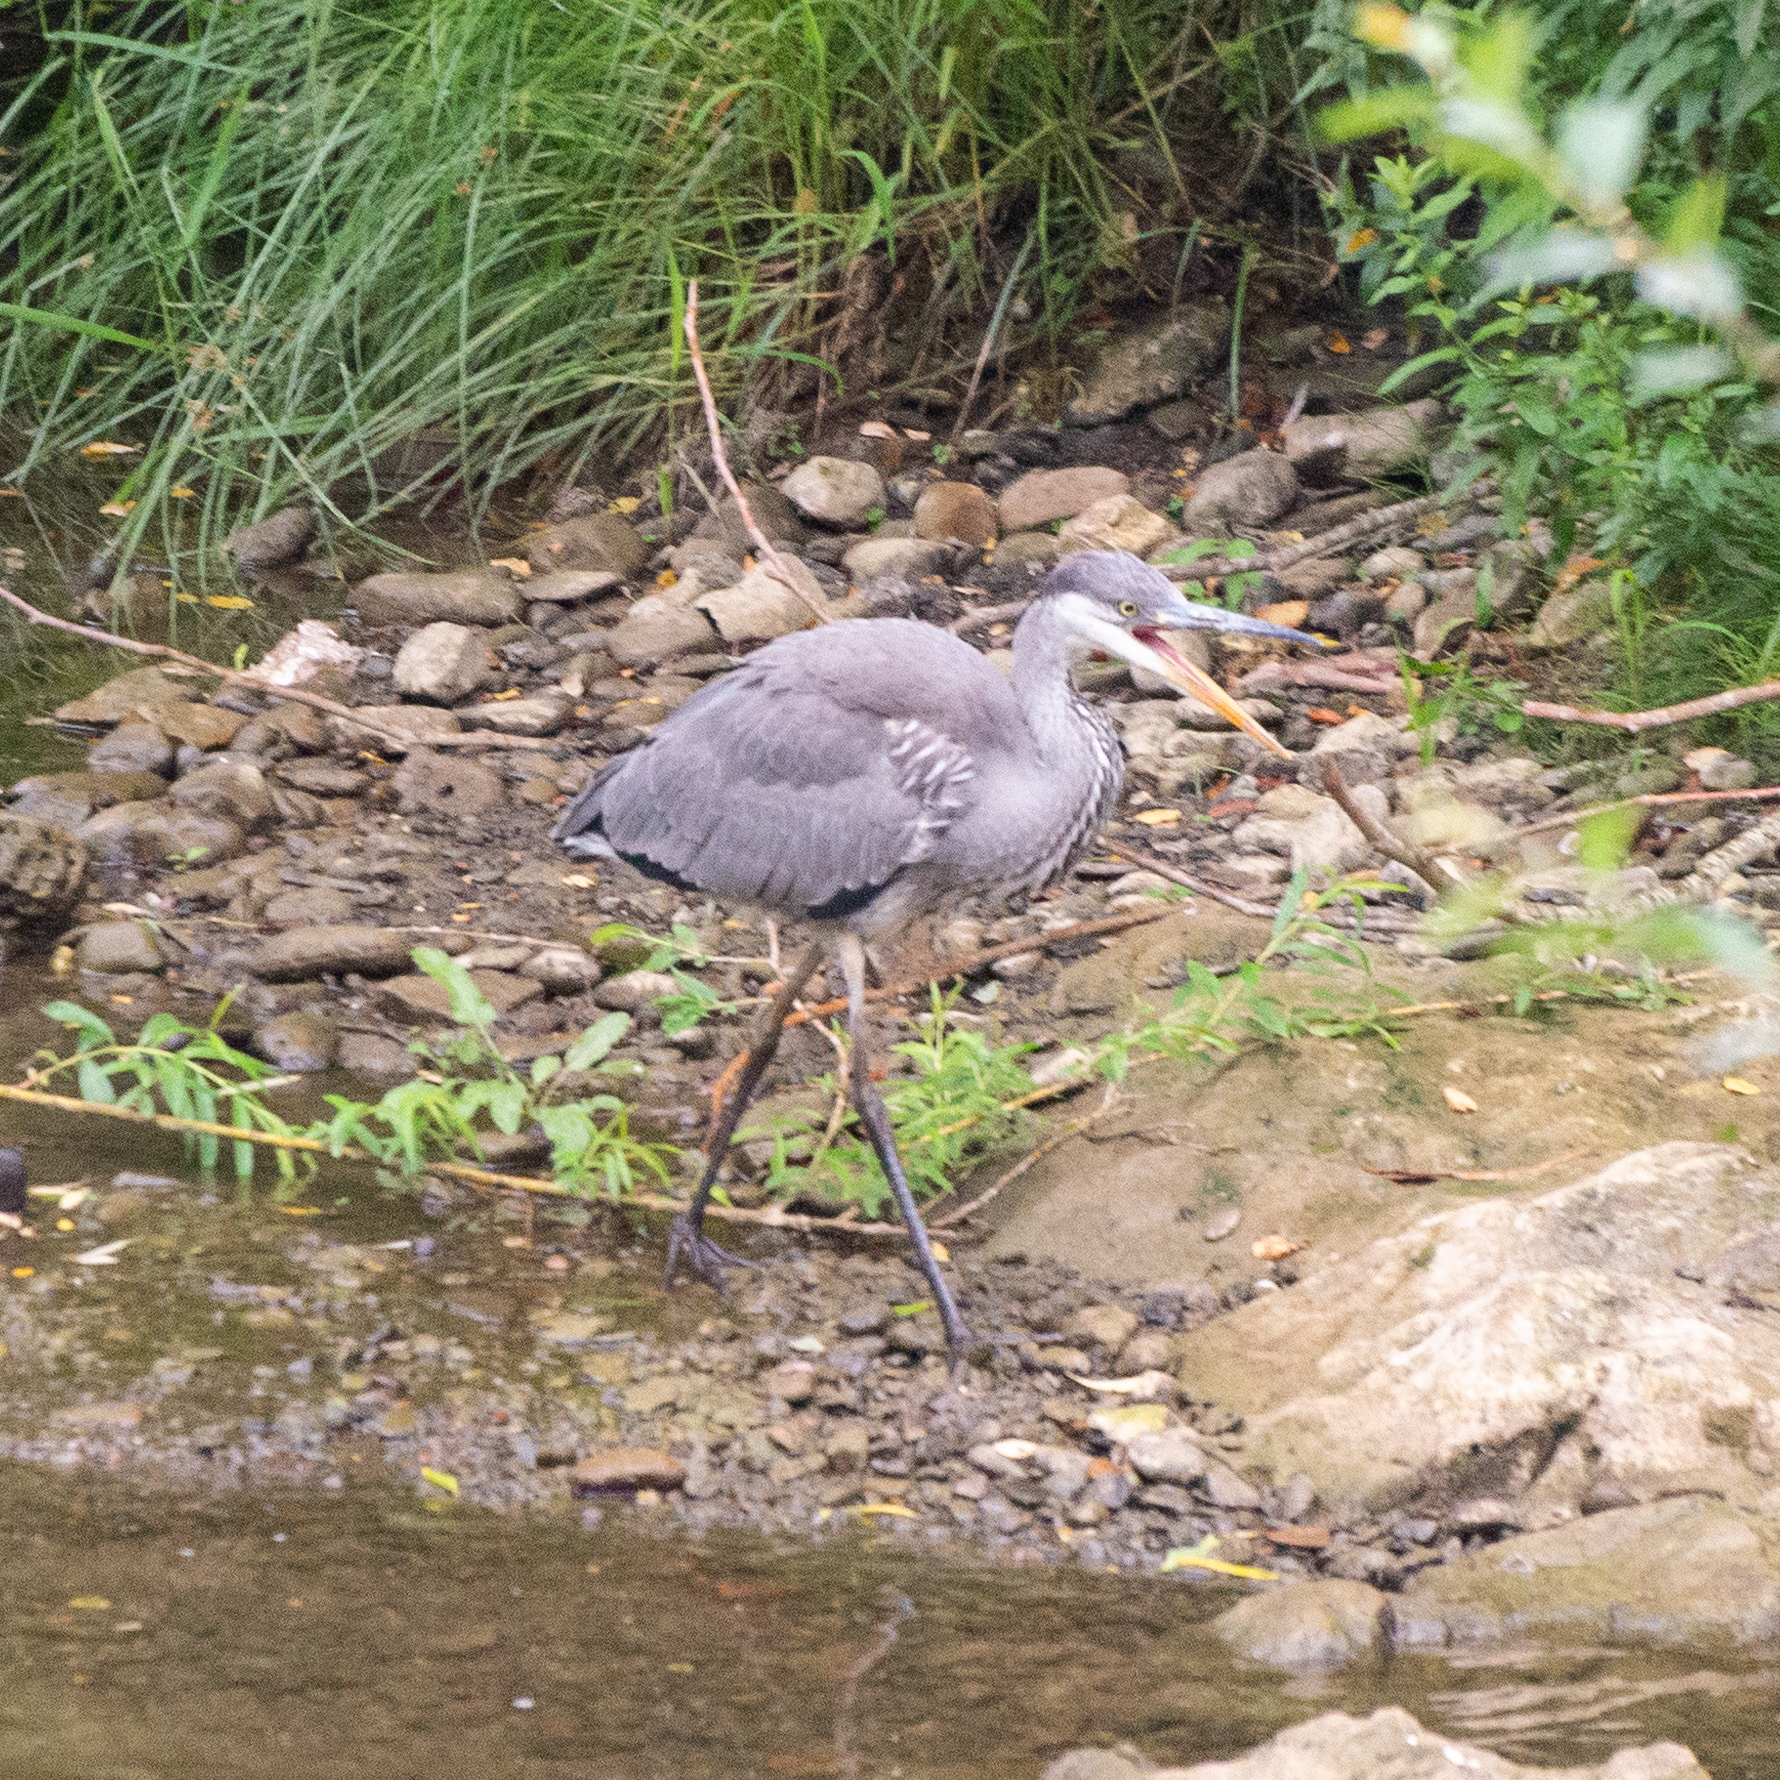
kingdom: Animalia
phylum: Chordata
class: Aves
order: Pelecaniformes
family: Ardeidae
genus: Ardea
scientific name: Ardea cinerea
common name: Grey heron
